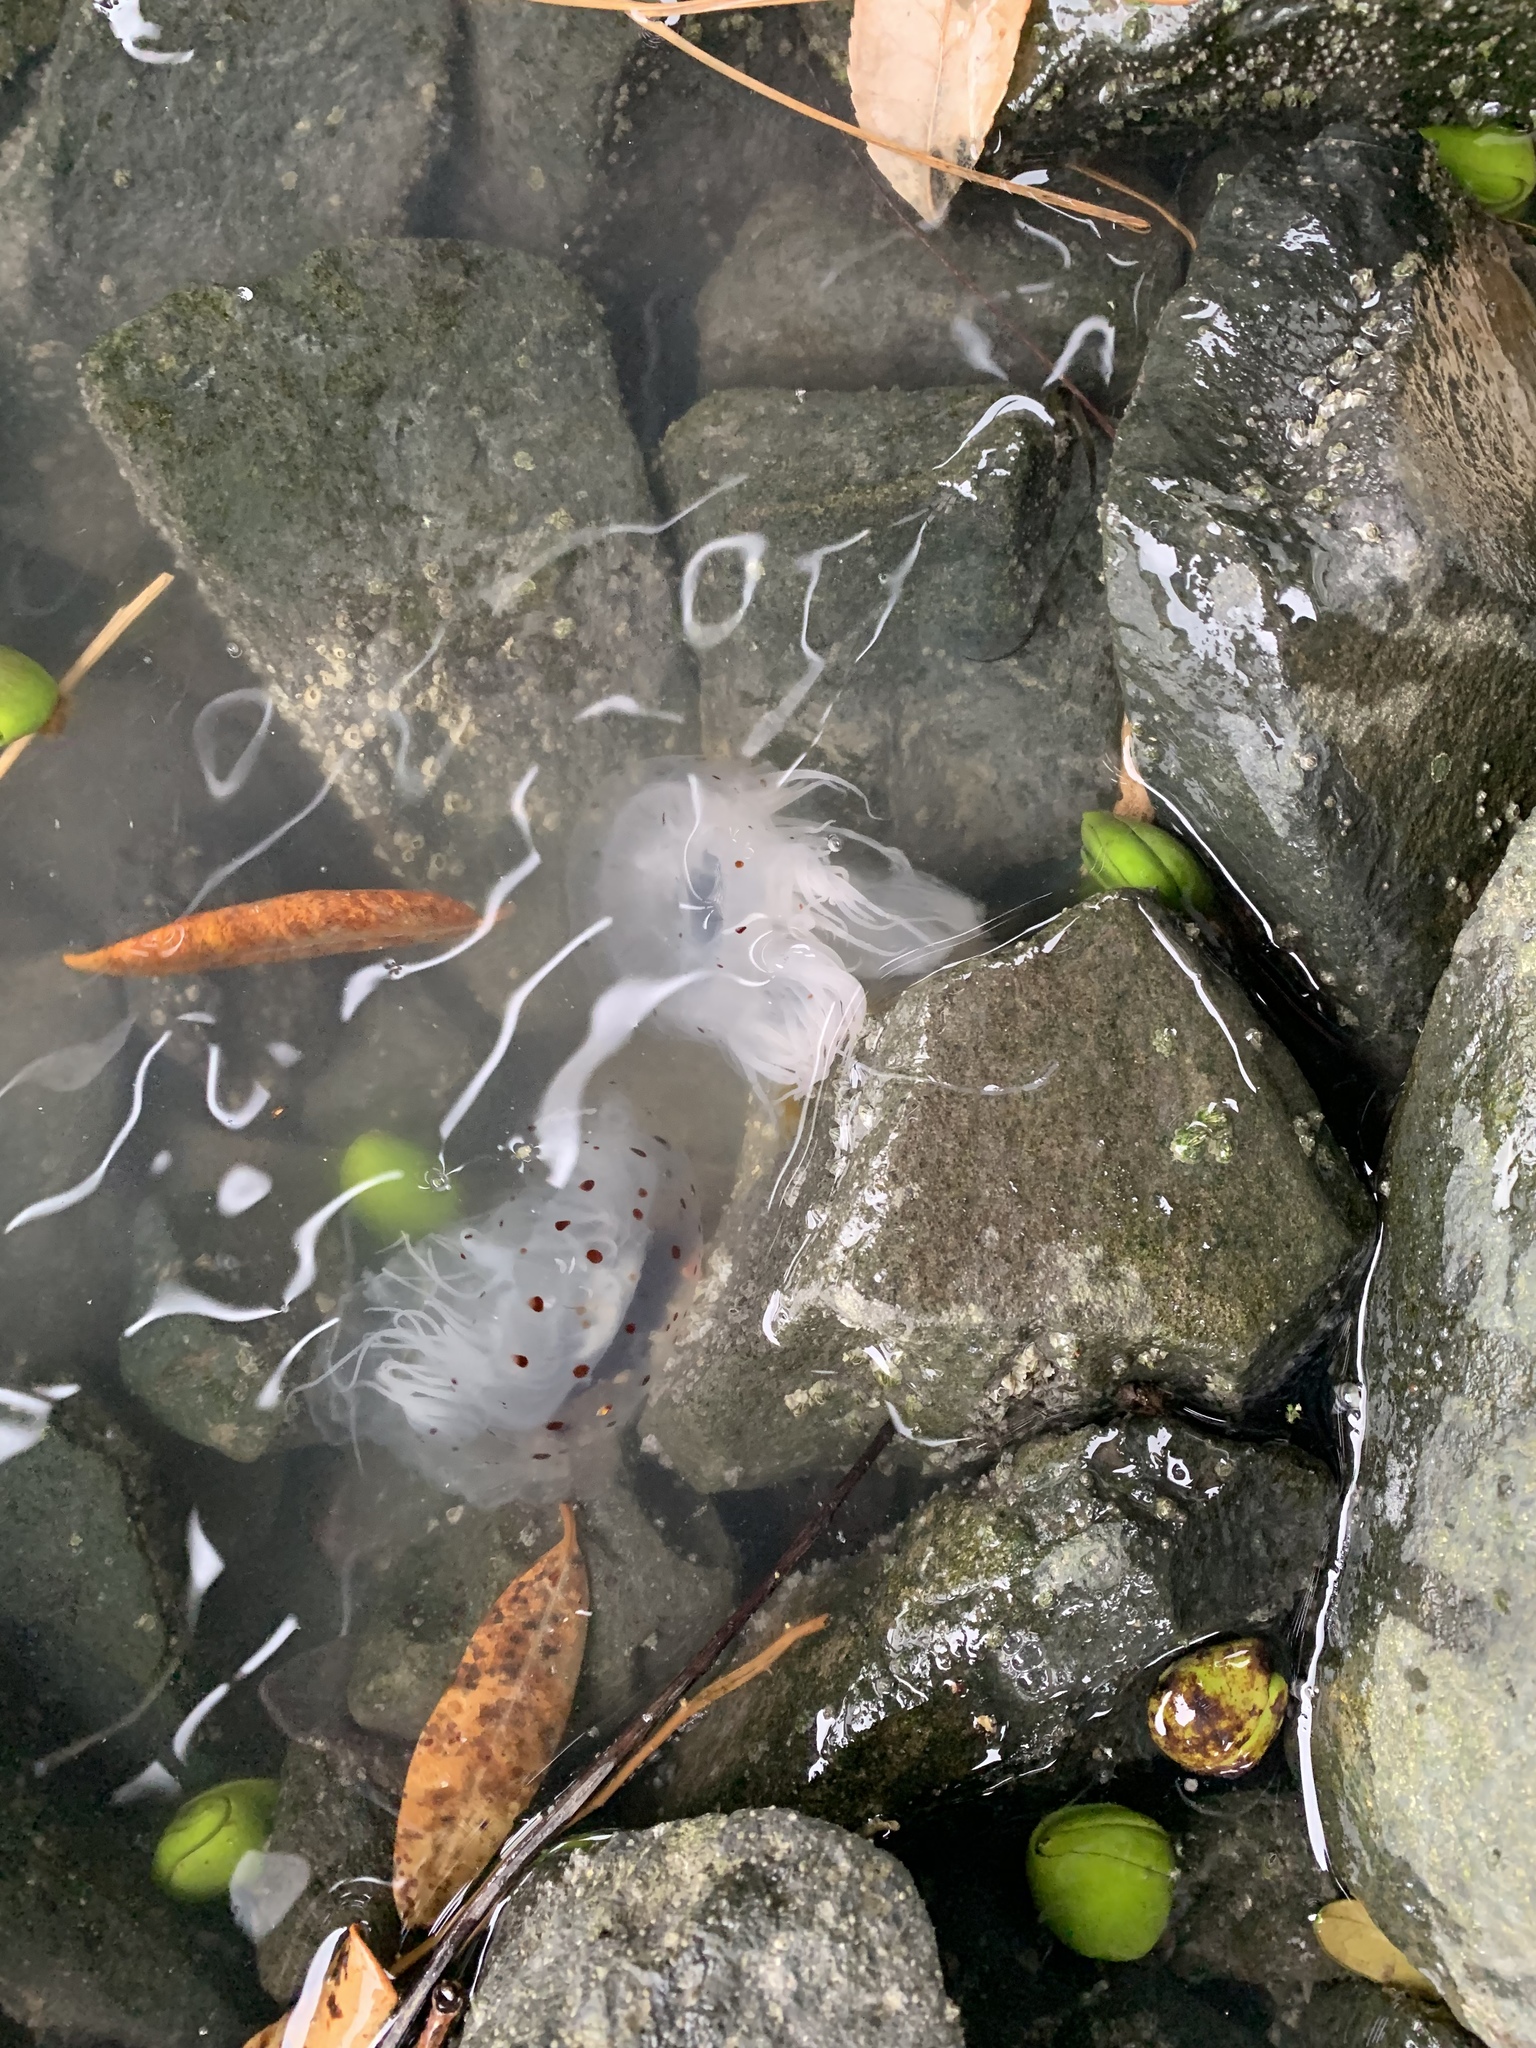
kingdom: Animalia
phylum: Cnidaria
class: Scyphozoa
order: Semaeostomeae
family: Cyaneidae
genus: Desmonema
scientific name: Desmonema gaudichaudi
